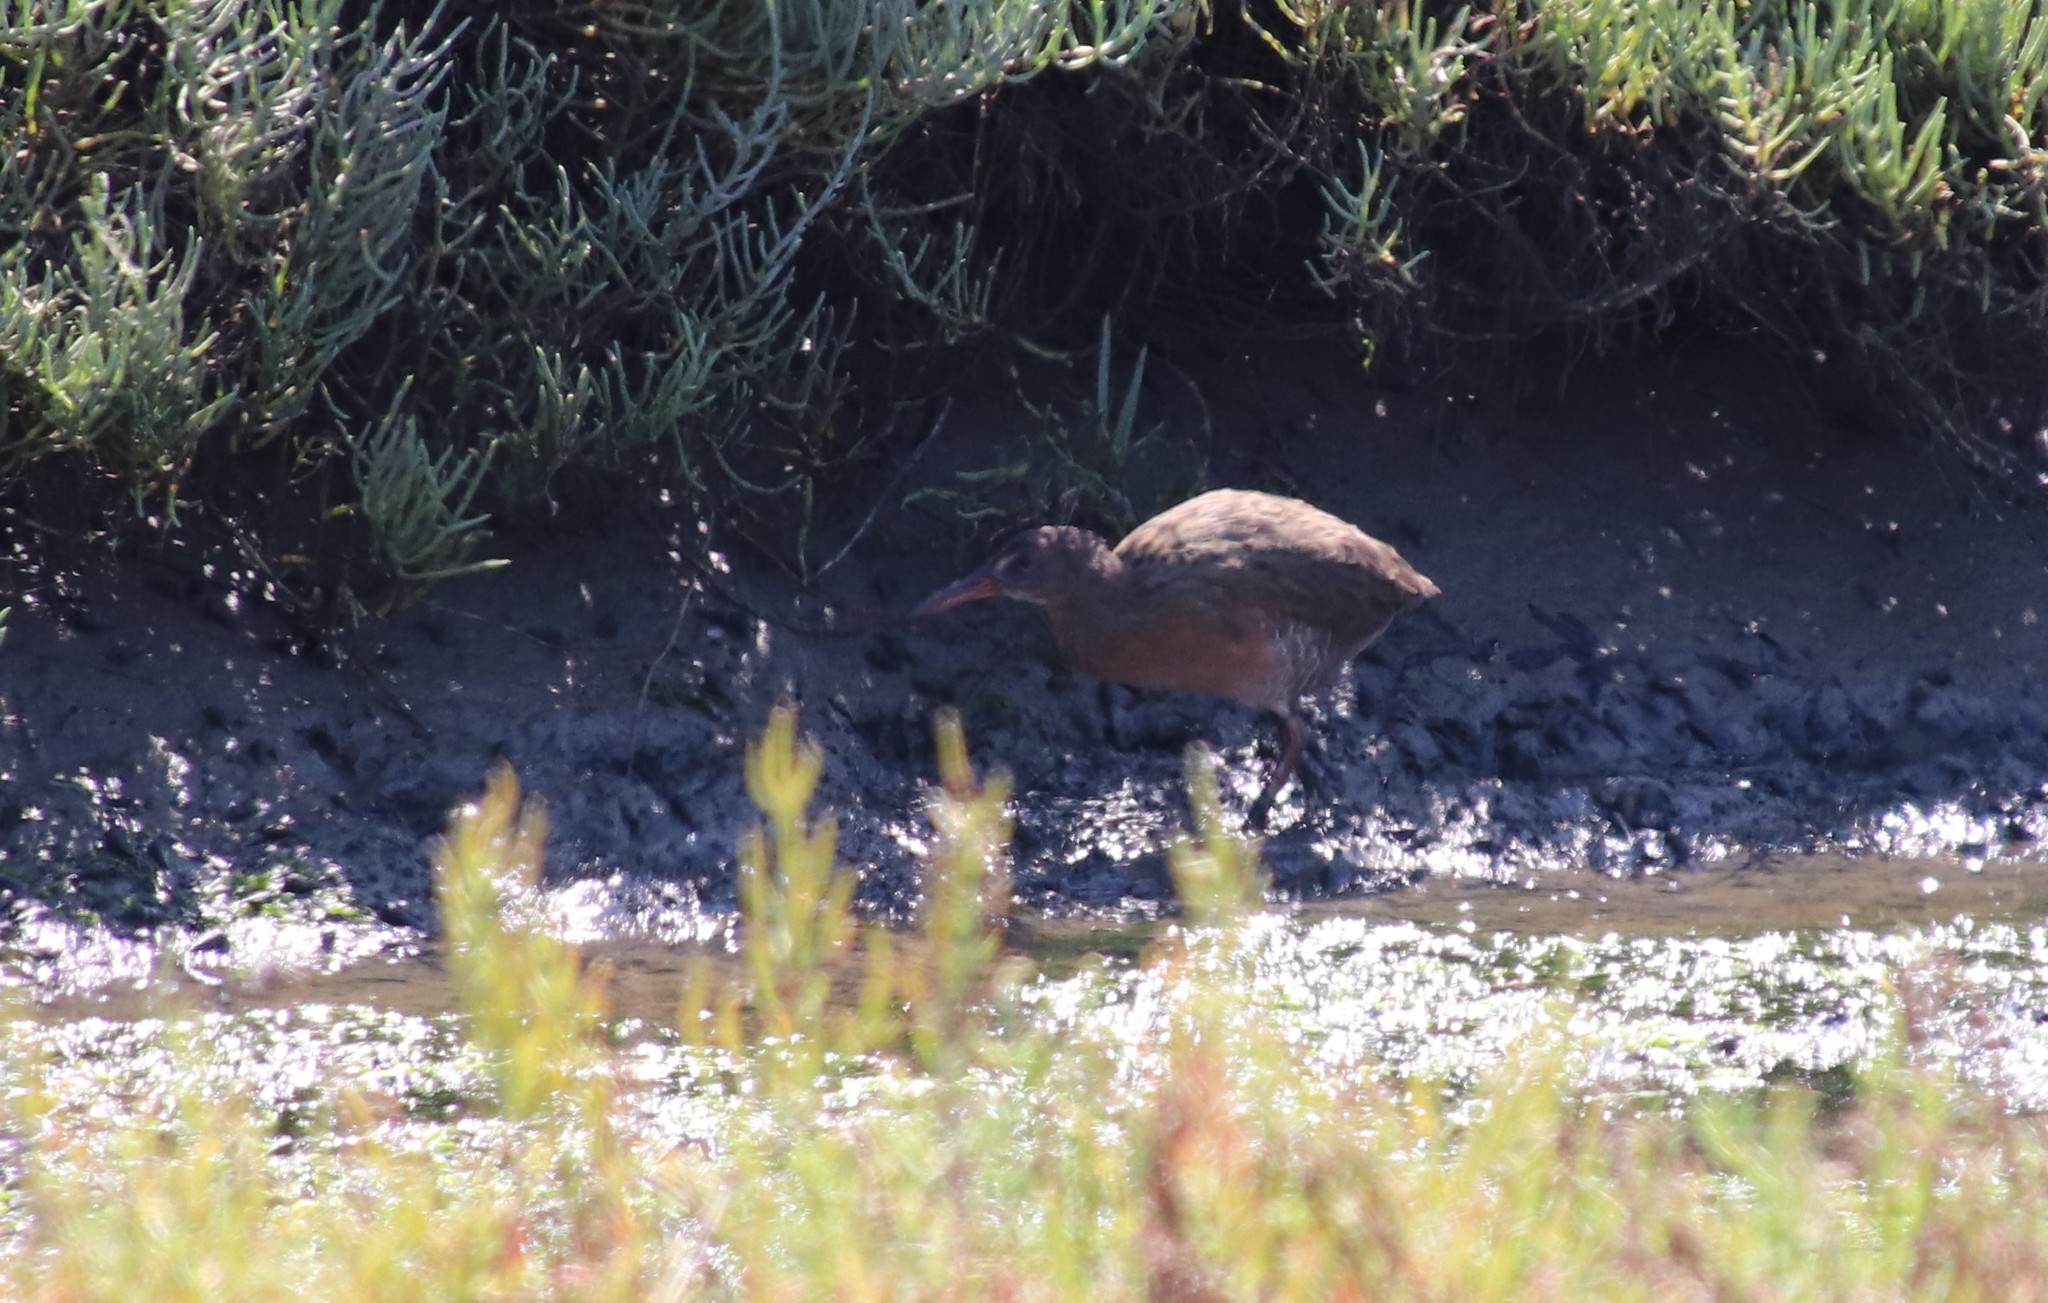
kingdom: Animalia
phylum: Chordata
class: Aves
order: Gruiformes
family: Rallidae
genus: Rallus
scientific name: Rallus obsoletus
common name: Ridgway's rail
